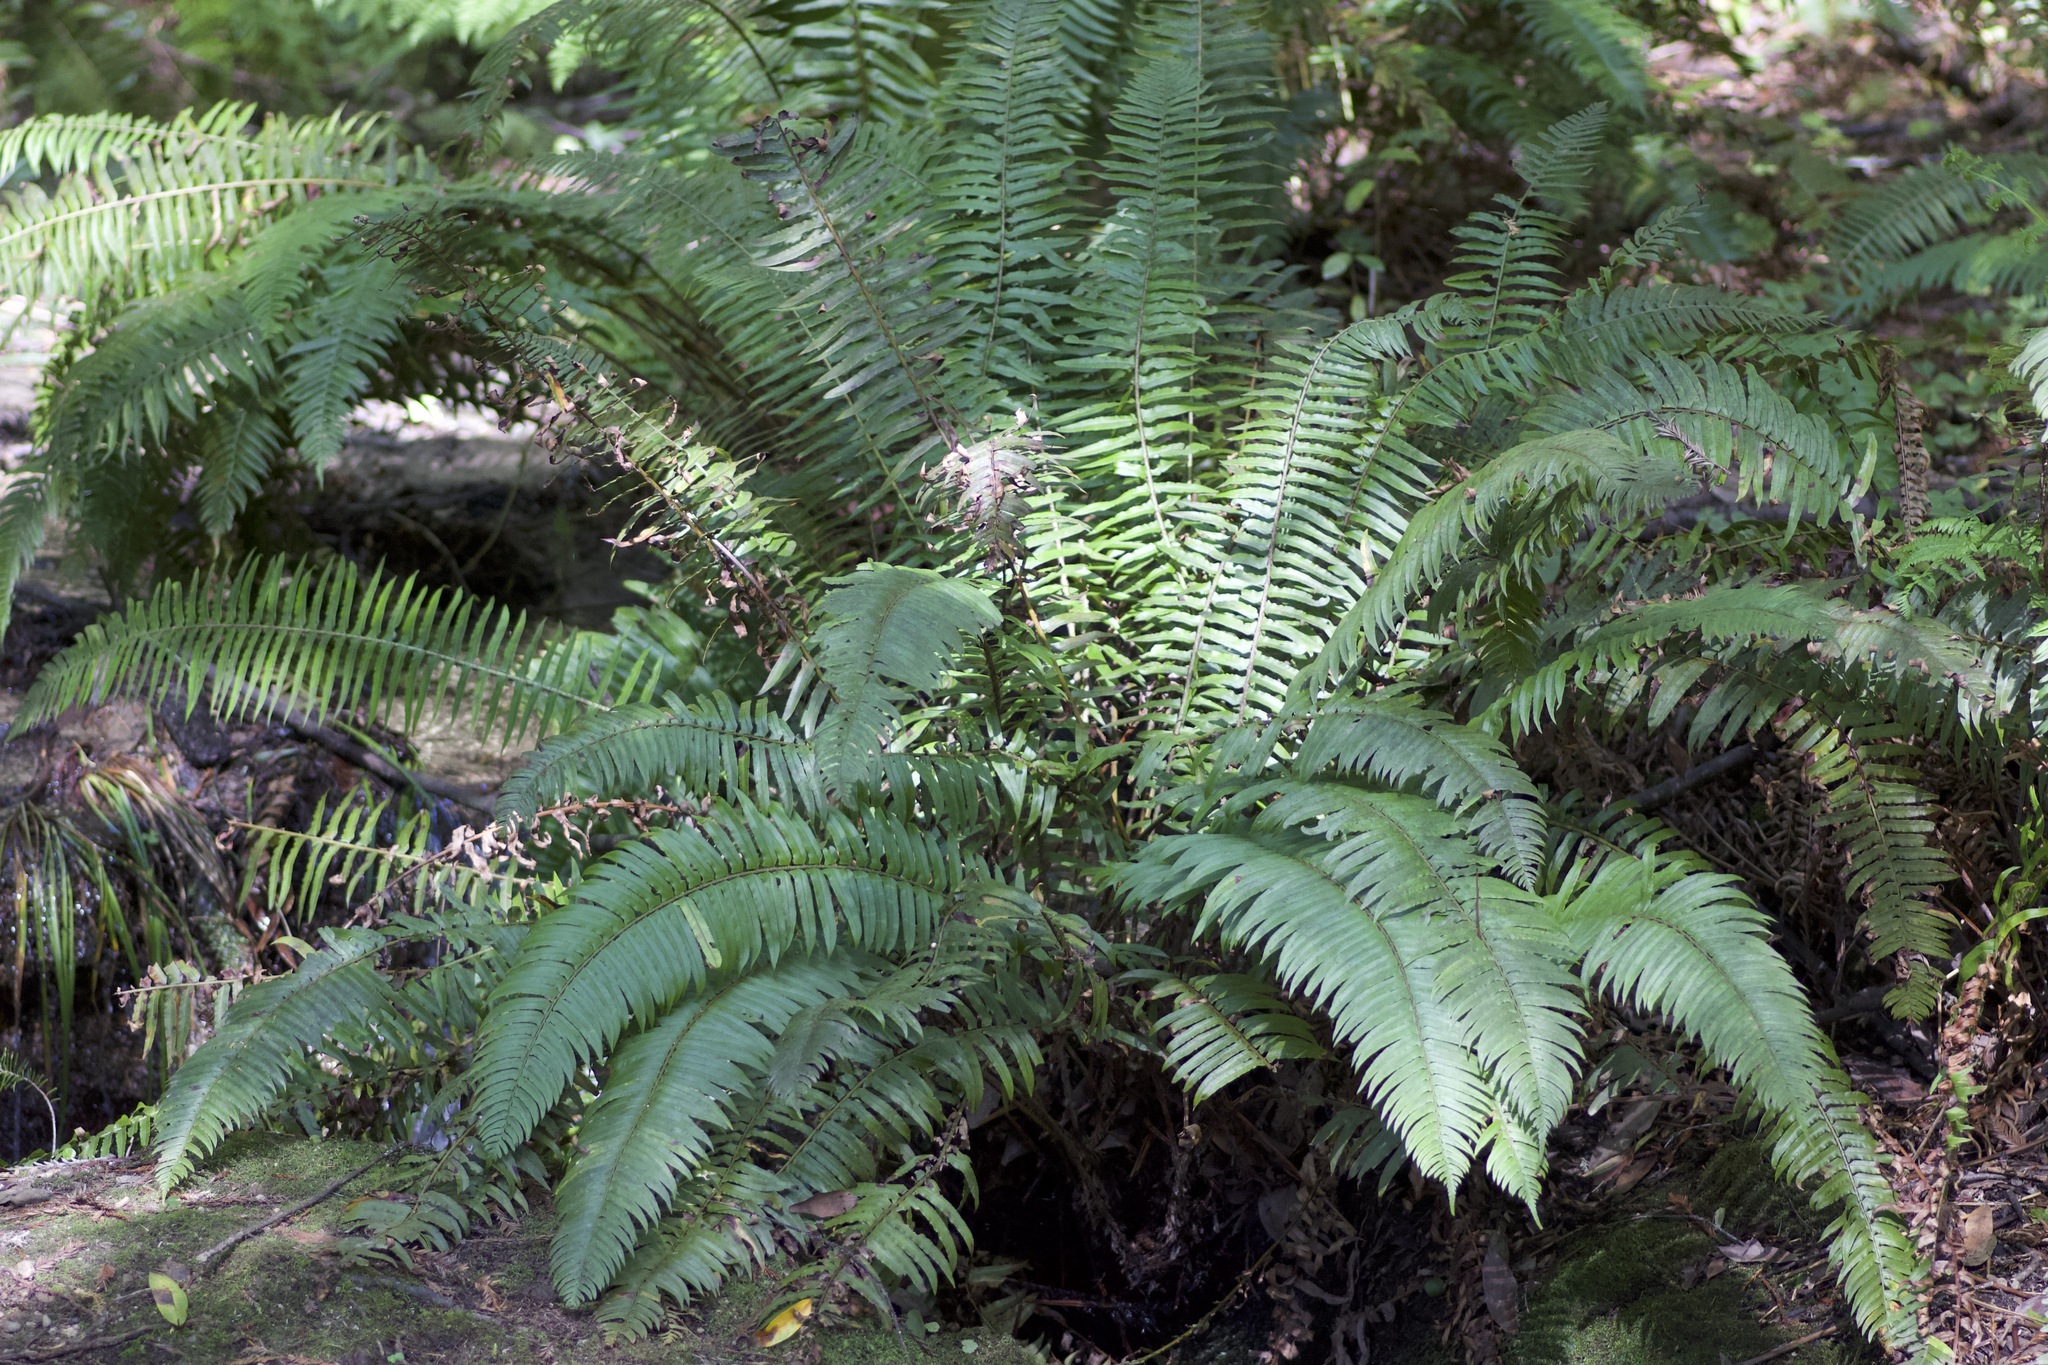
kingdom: Plantae
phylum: Tracheophyta
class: Polypodiopsida
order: Polypodiales
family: Dryopteridaceae
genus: Polystichum
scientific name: Polystichum munitum
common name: Western sword-fern
